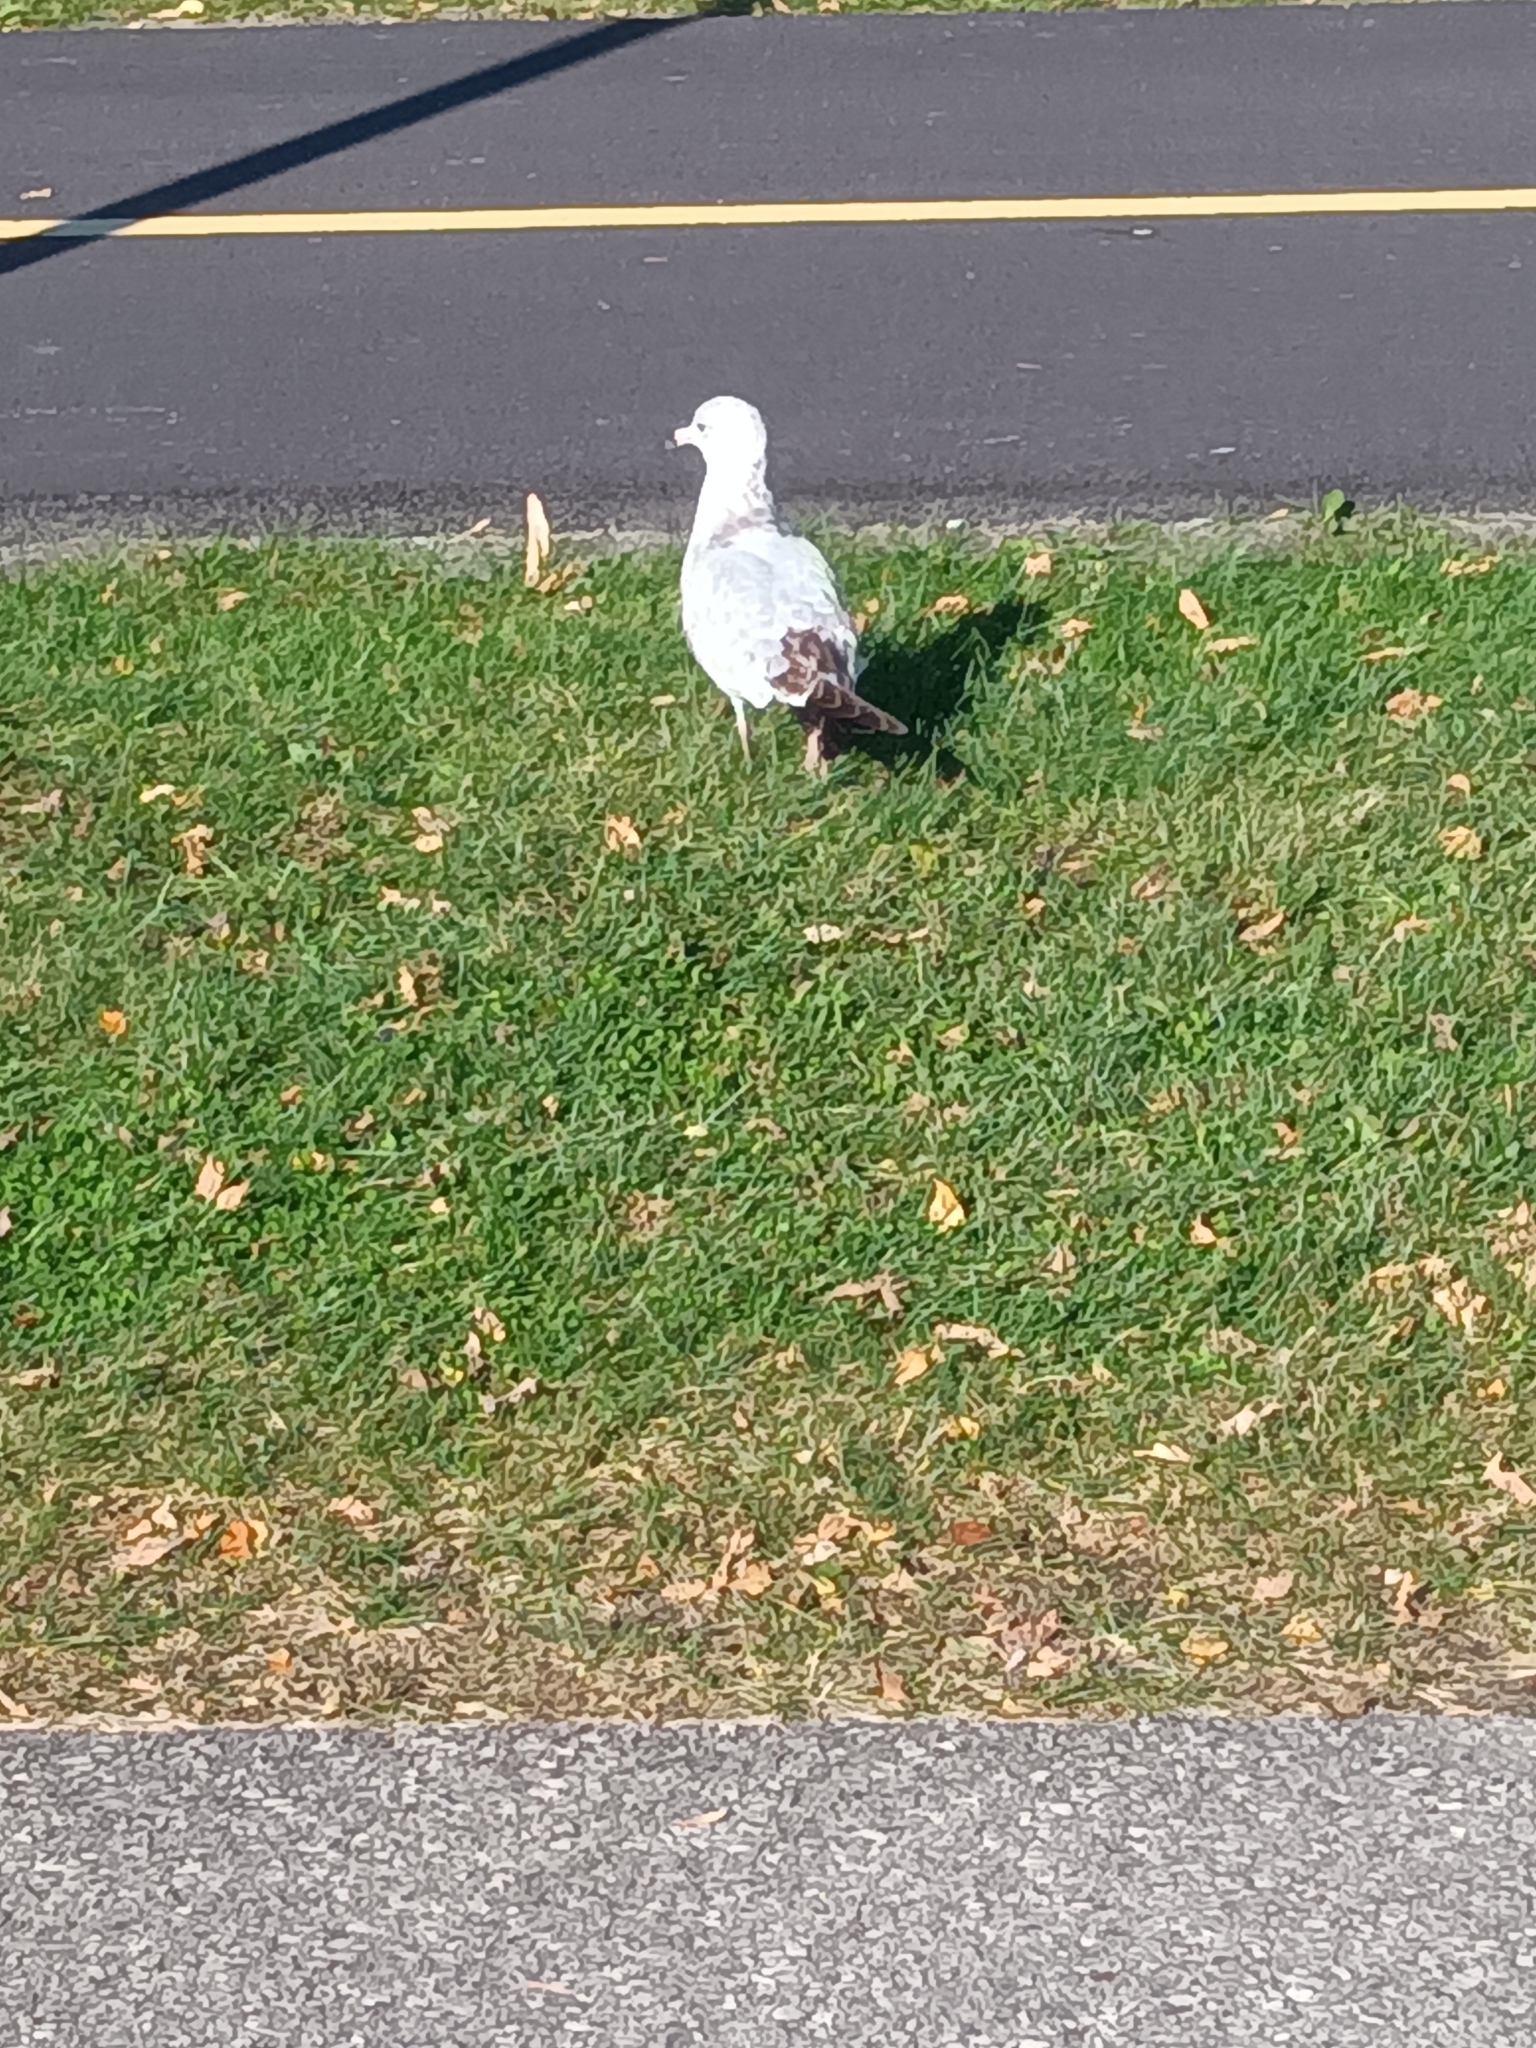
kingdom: Animalia
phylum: Chordata
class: Aves
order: Charadriiformes
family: Laridae
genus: Larus
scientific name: Larus delawarensis
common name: Ring-billed gull
